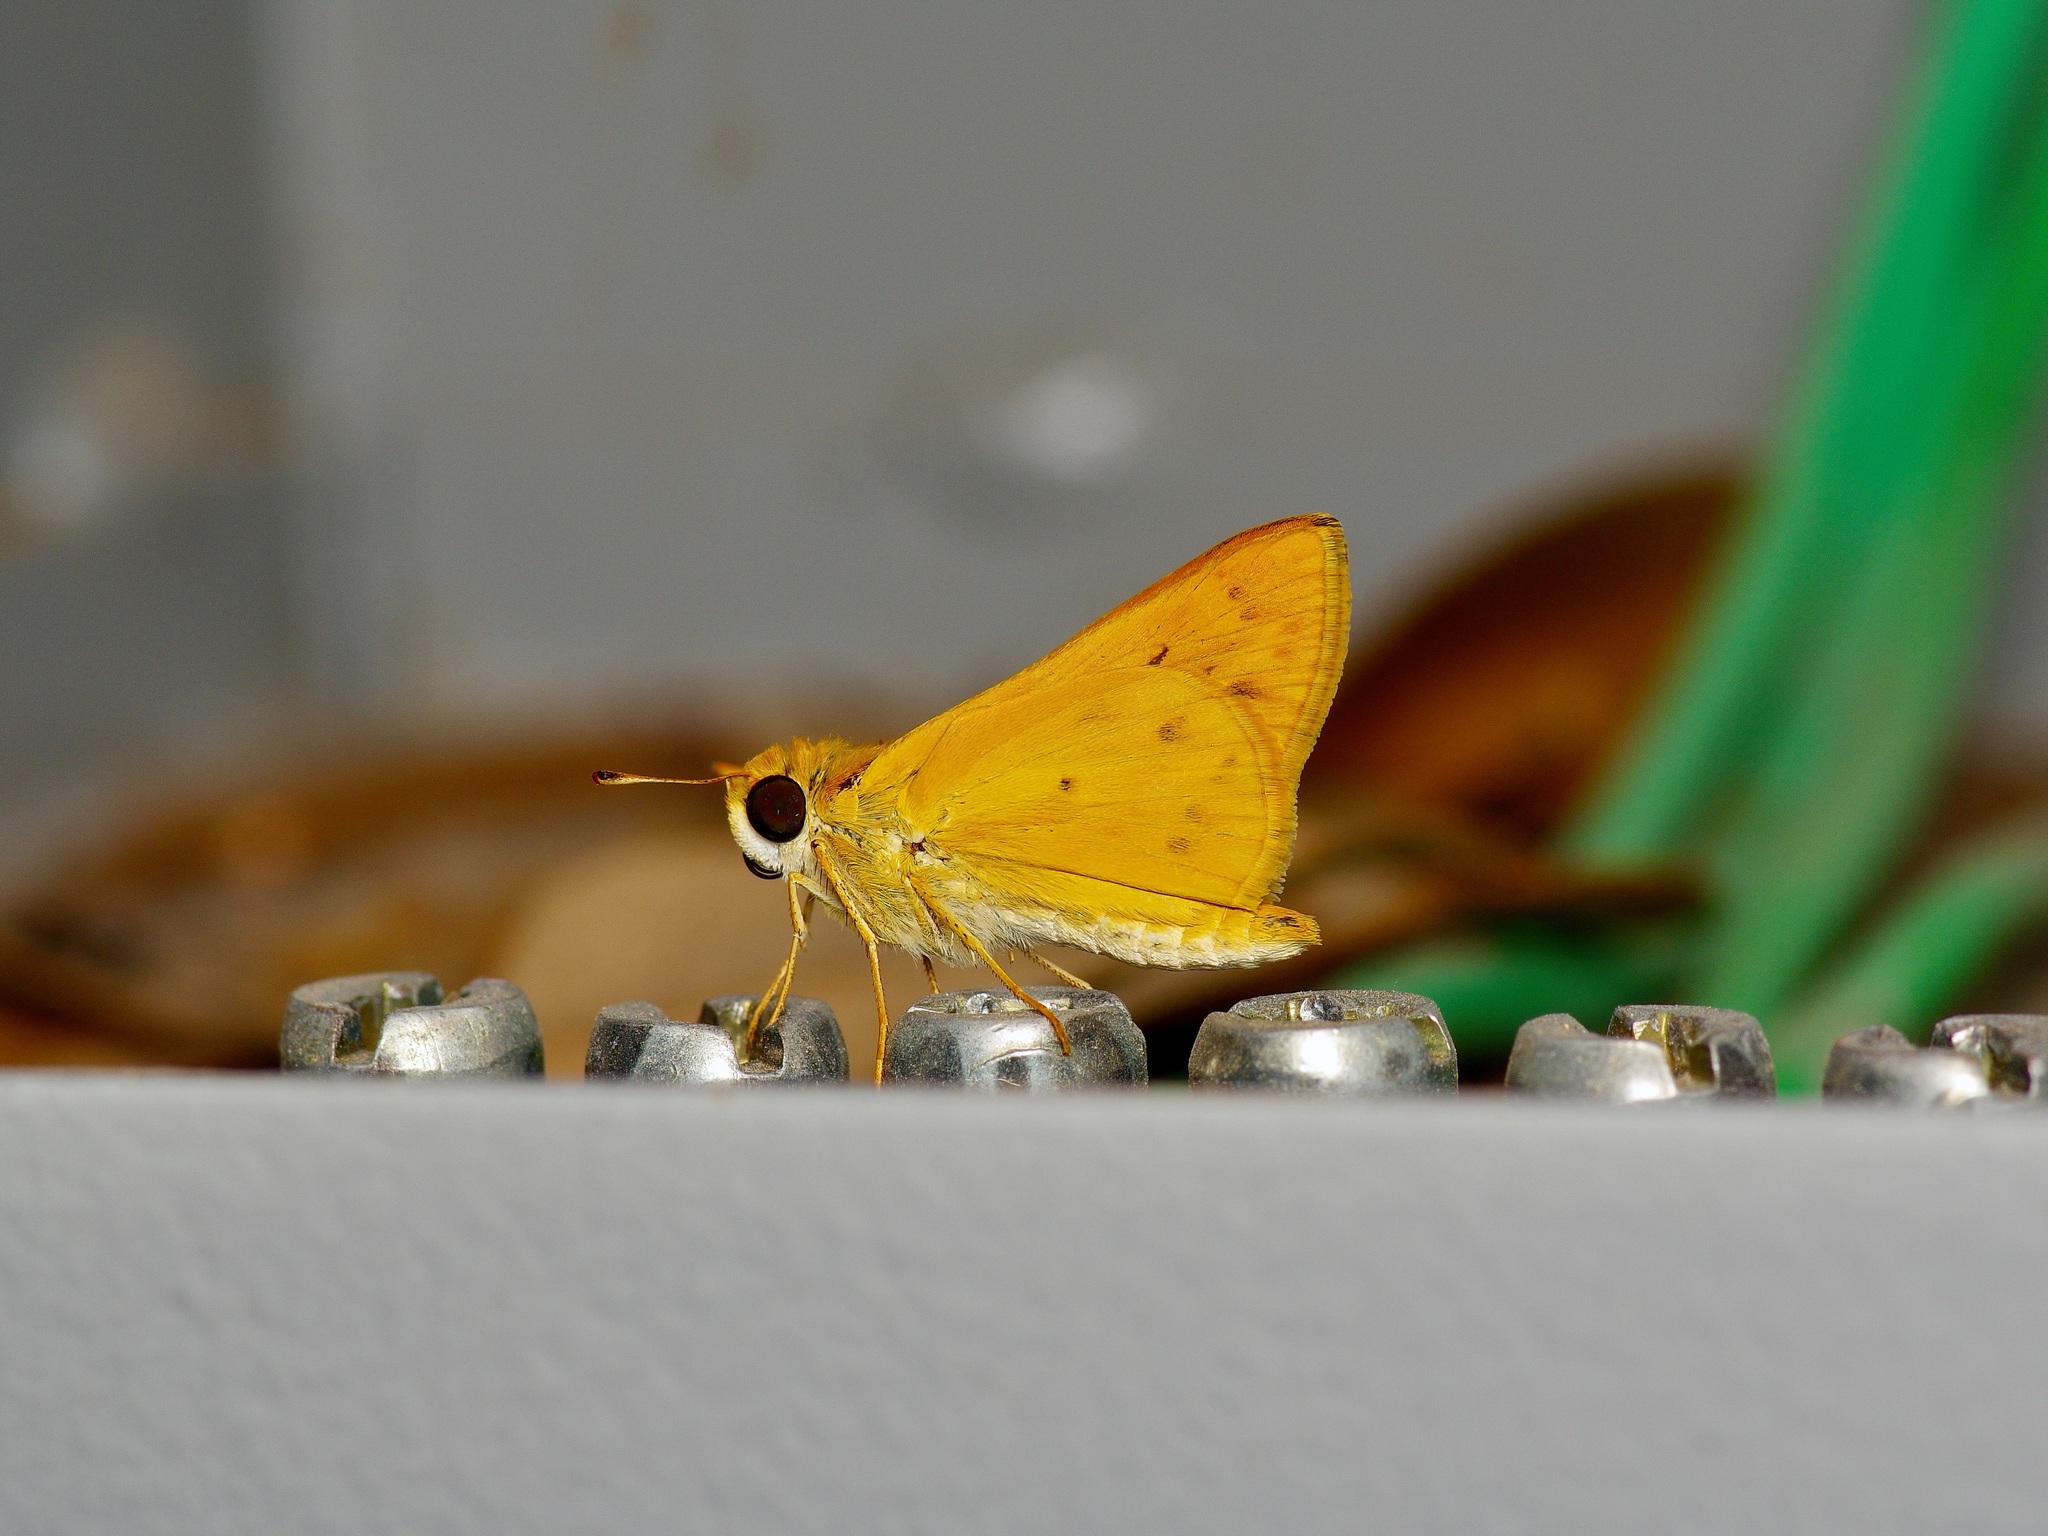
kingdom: Animalia
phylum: Arthropoda
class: Insecta
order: Lepidoptera
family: Hesperiidae
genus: Hylephila
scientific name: Hylephila phyleus
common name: Fiery skipper
